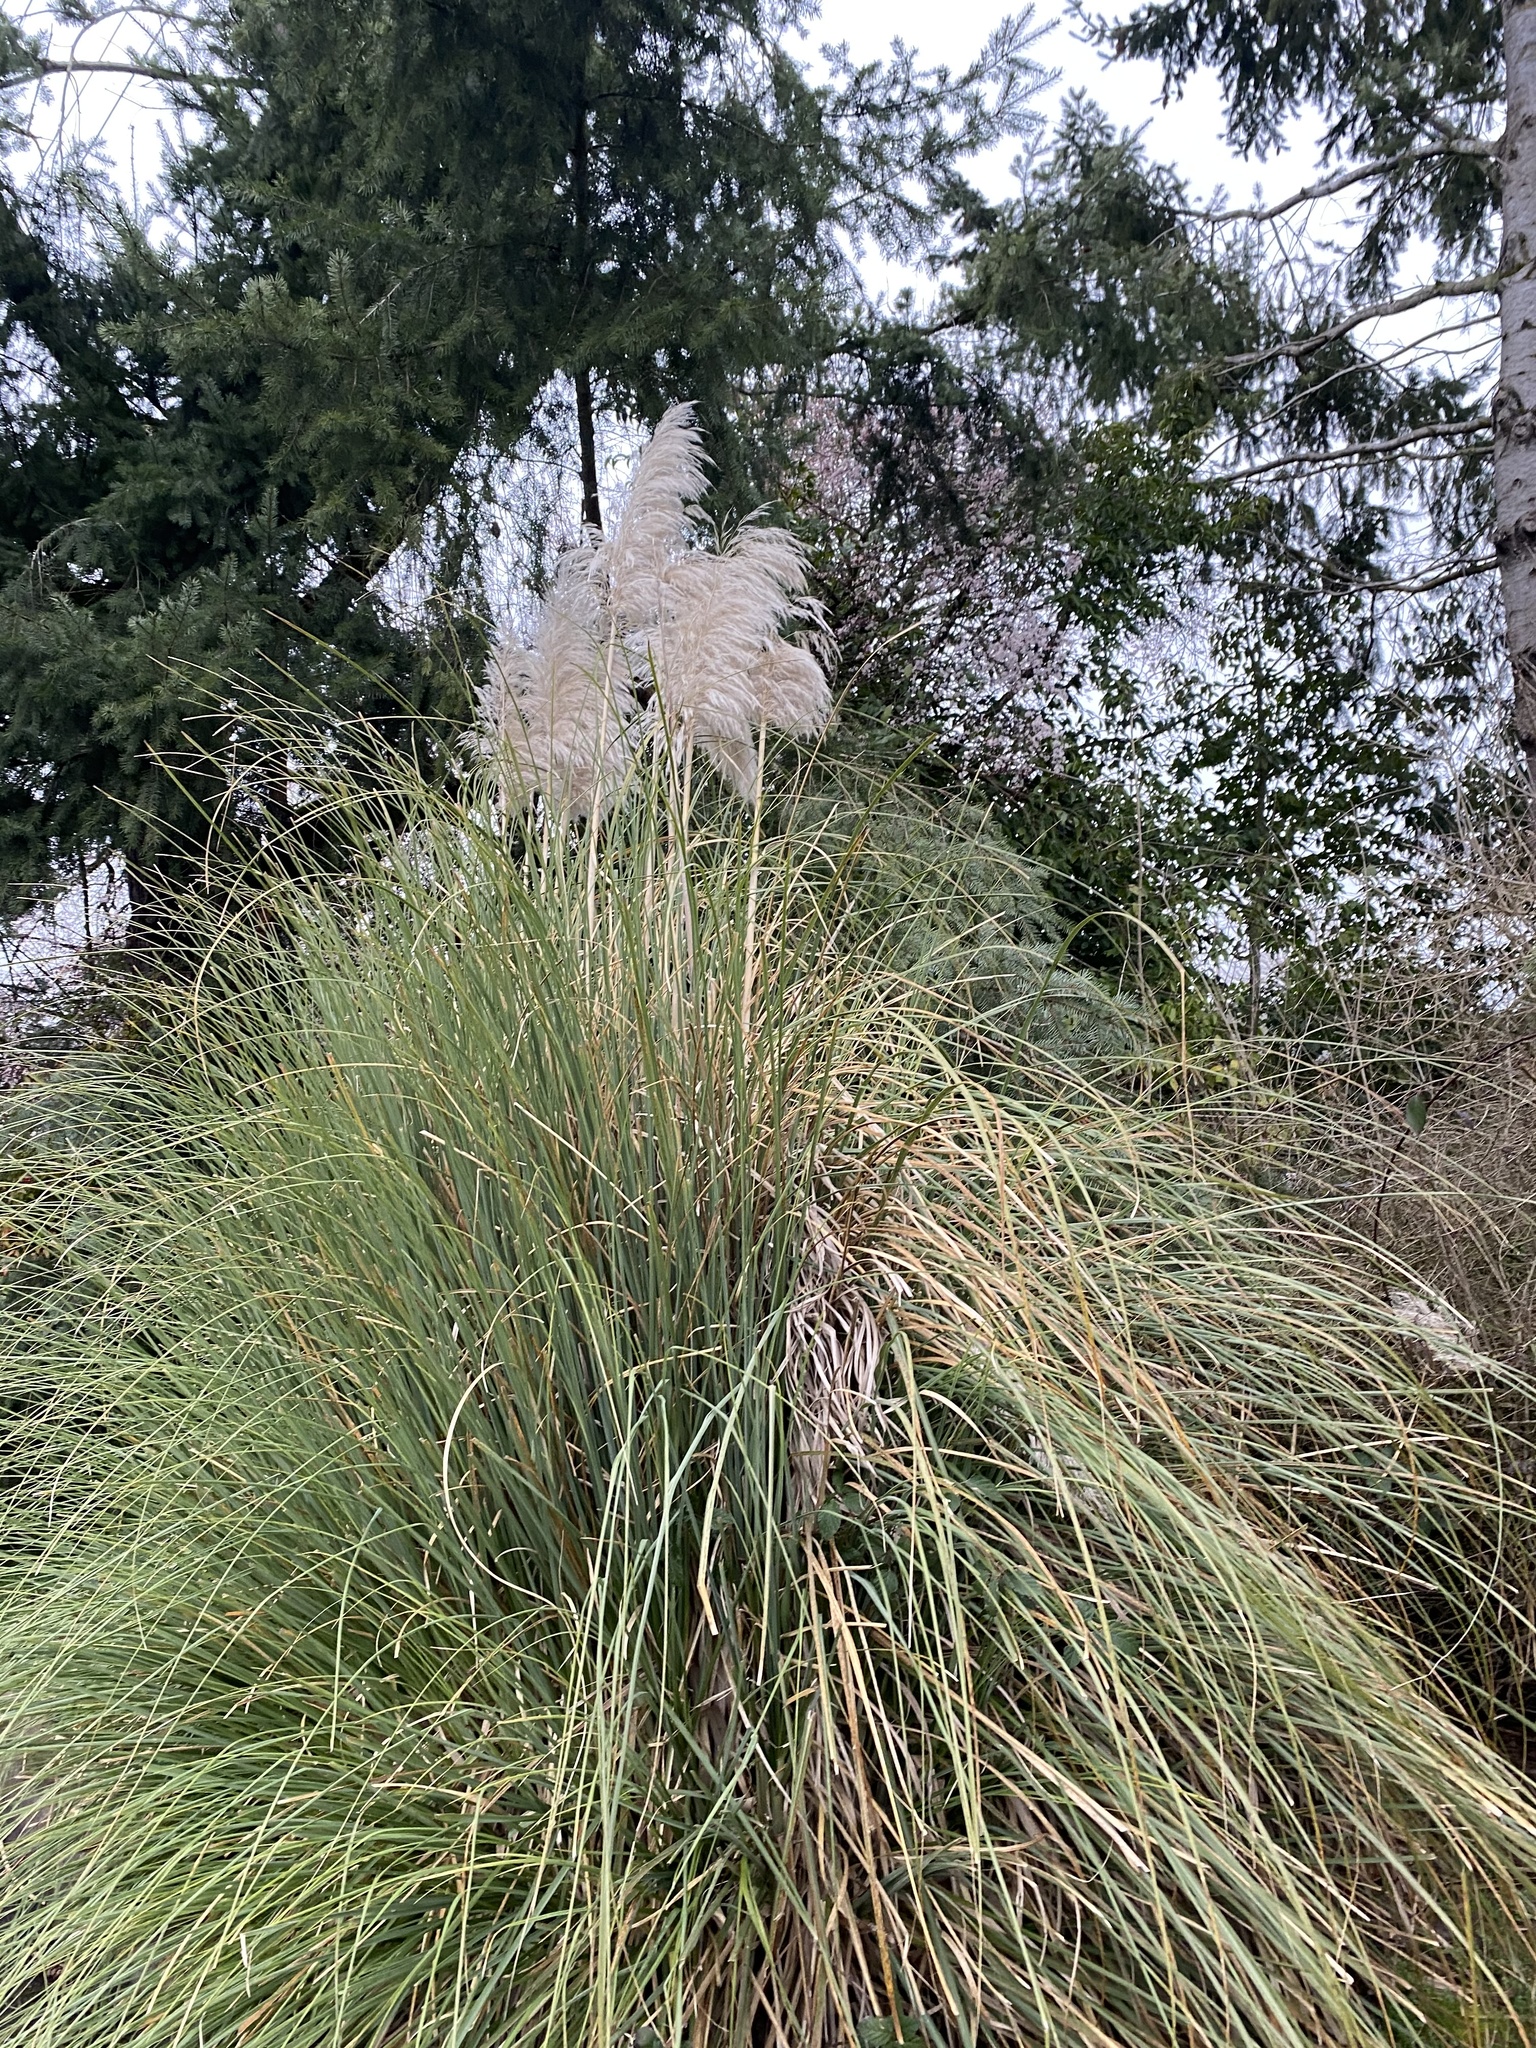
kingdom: Plantae
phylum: Tracheophyta
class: Liliopsida
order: Poales
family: Poaceae
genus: Cortaderia
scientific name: Cortaderia selloana
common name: Uruguayan pampas grass
